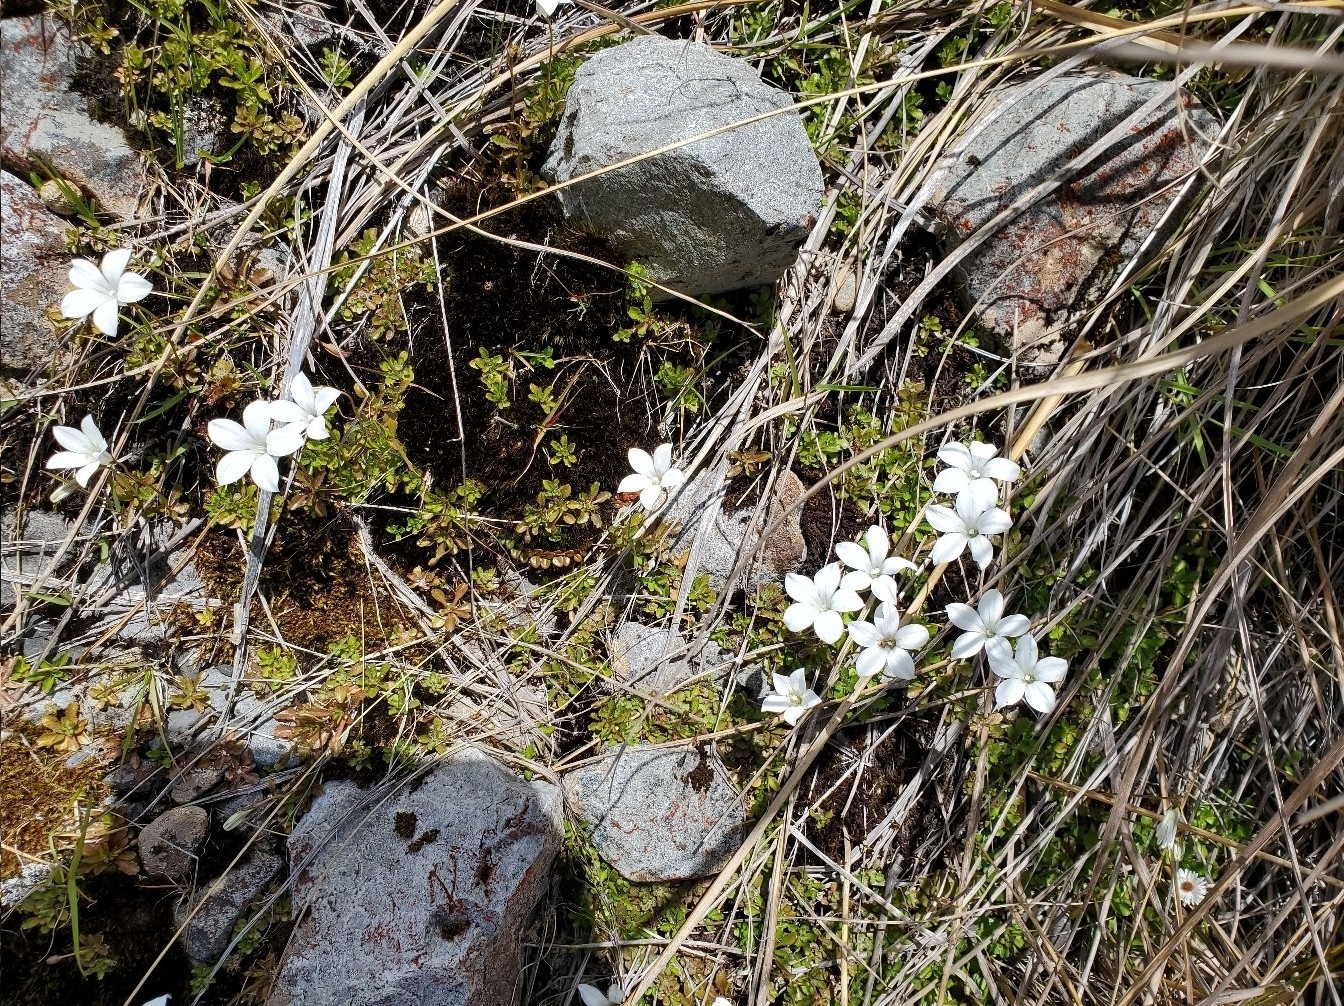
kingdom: Plantae
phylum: Tracheophyta
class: Magnoliopsida
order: Asterales
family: Campanulaceae
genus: Wahlenbergia
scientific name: Wahlenbergia albomarginata
